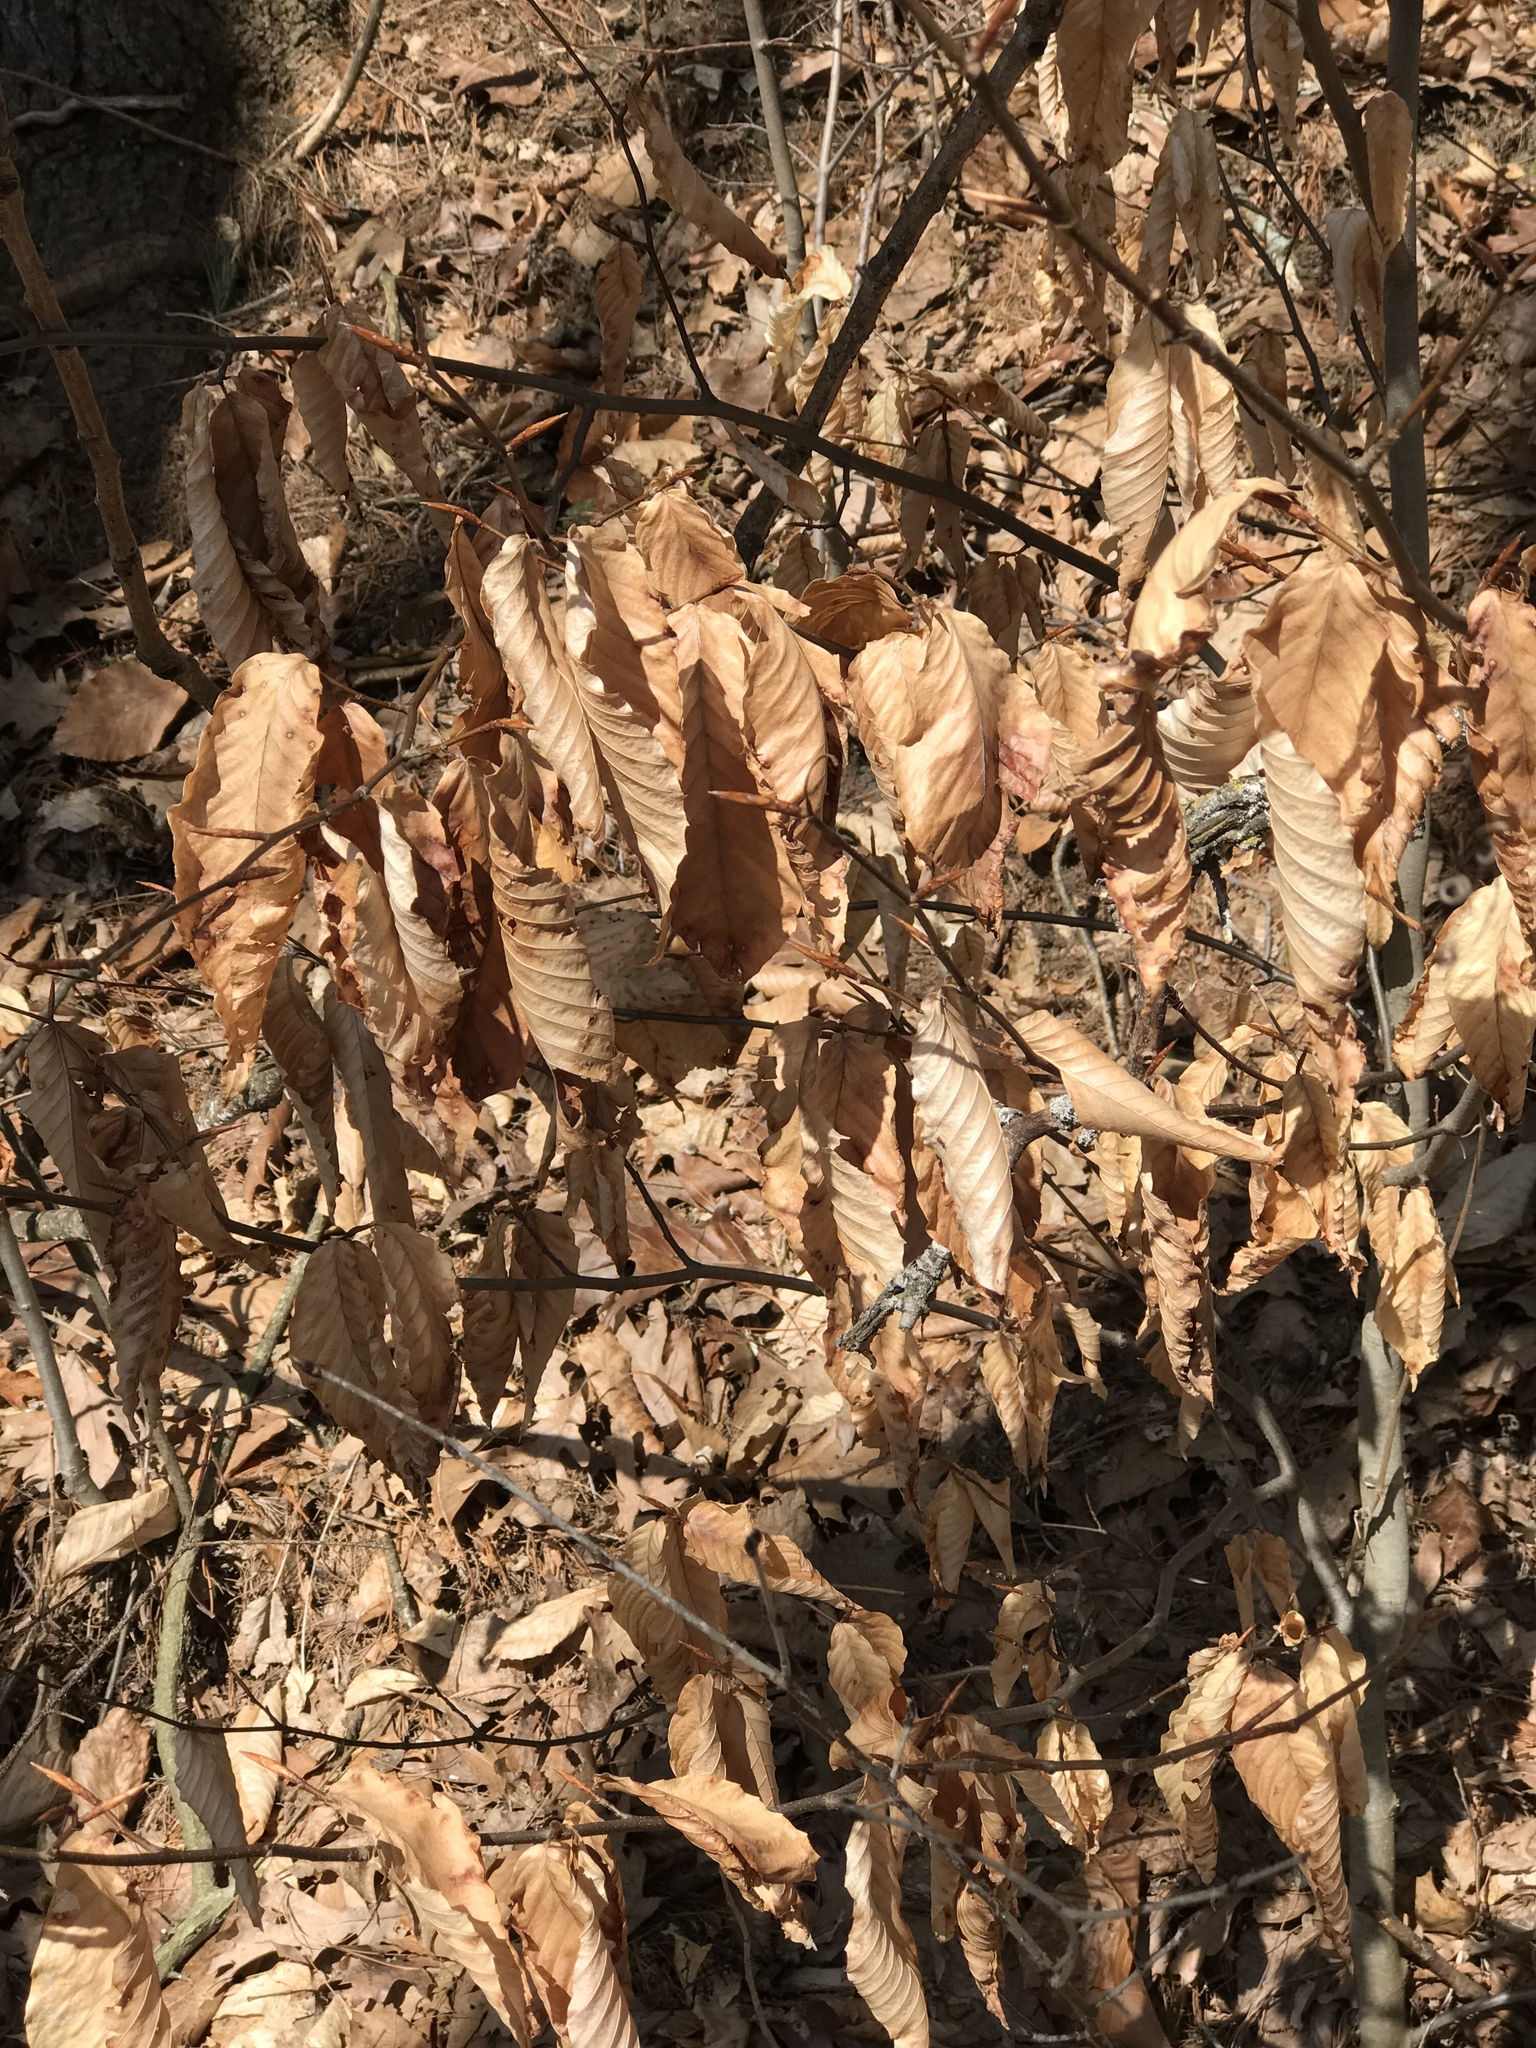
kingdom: Plantae
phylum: Tracheophyta
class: Magnoliopsida
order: Fagales
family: Fagaceae
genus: Fagus
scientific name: Fagus grandifolia
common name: American beech
